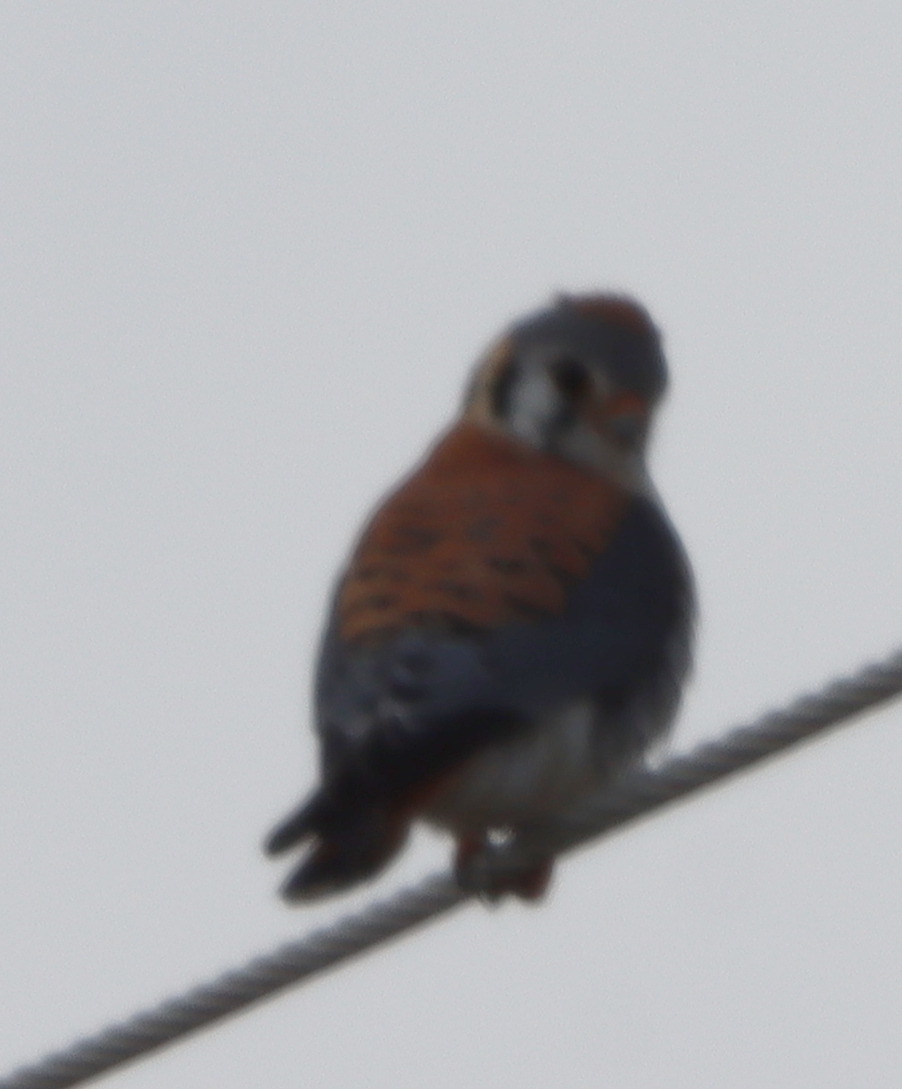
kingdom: Animalia
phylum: Chordata
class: Aves
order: Falconiformes
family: Falconidae
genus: Falco
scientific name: Falco sparverius
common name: American kestrel
